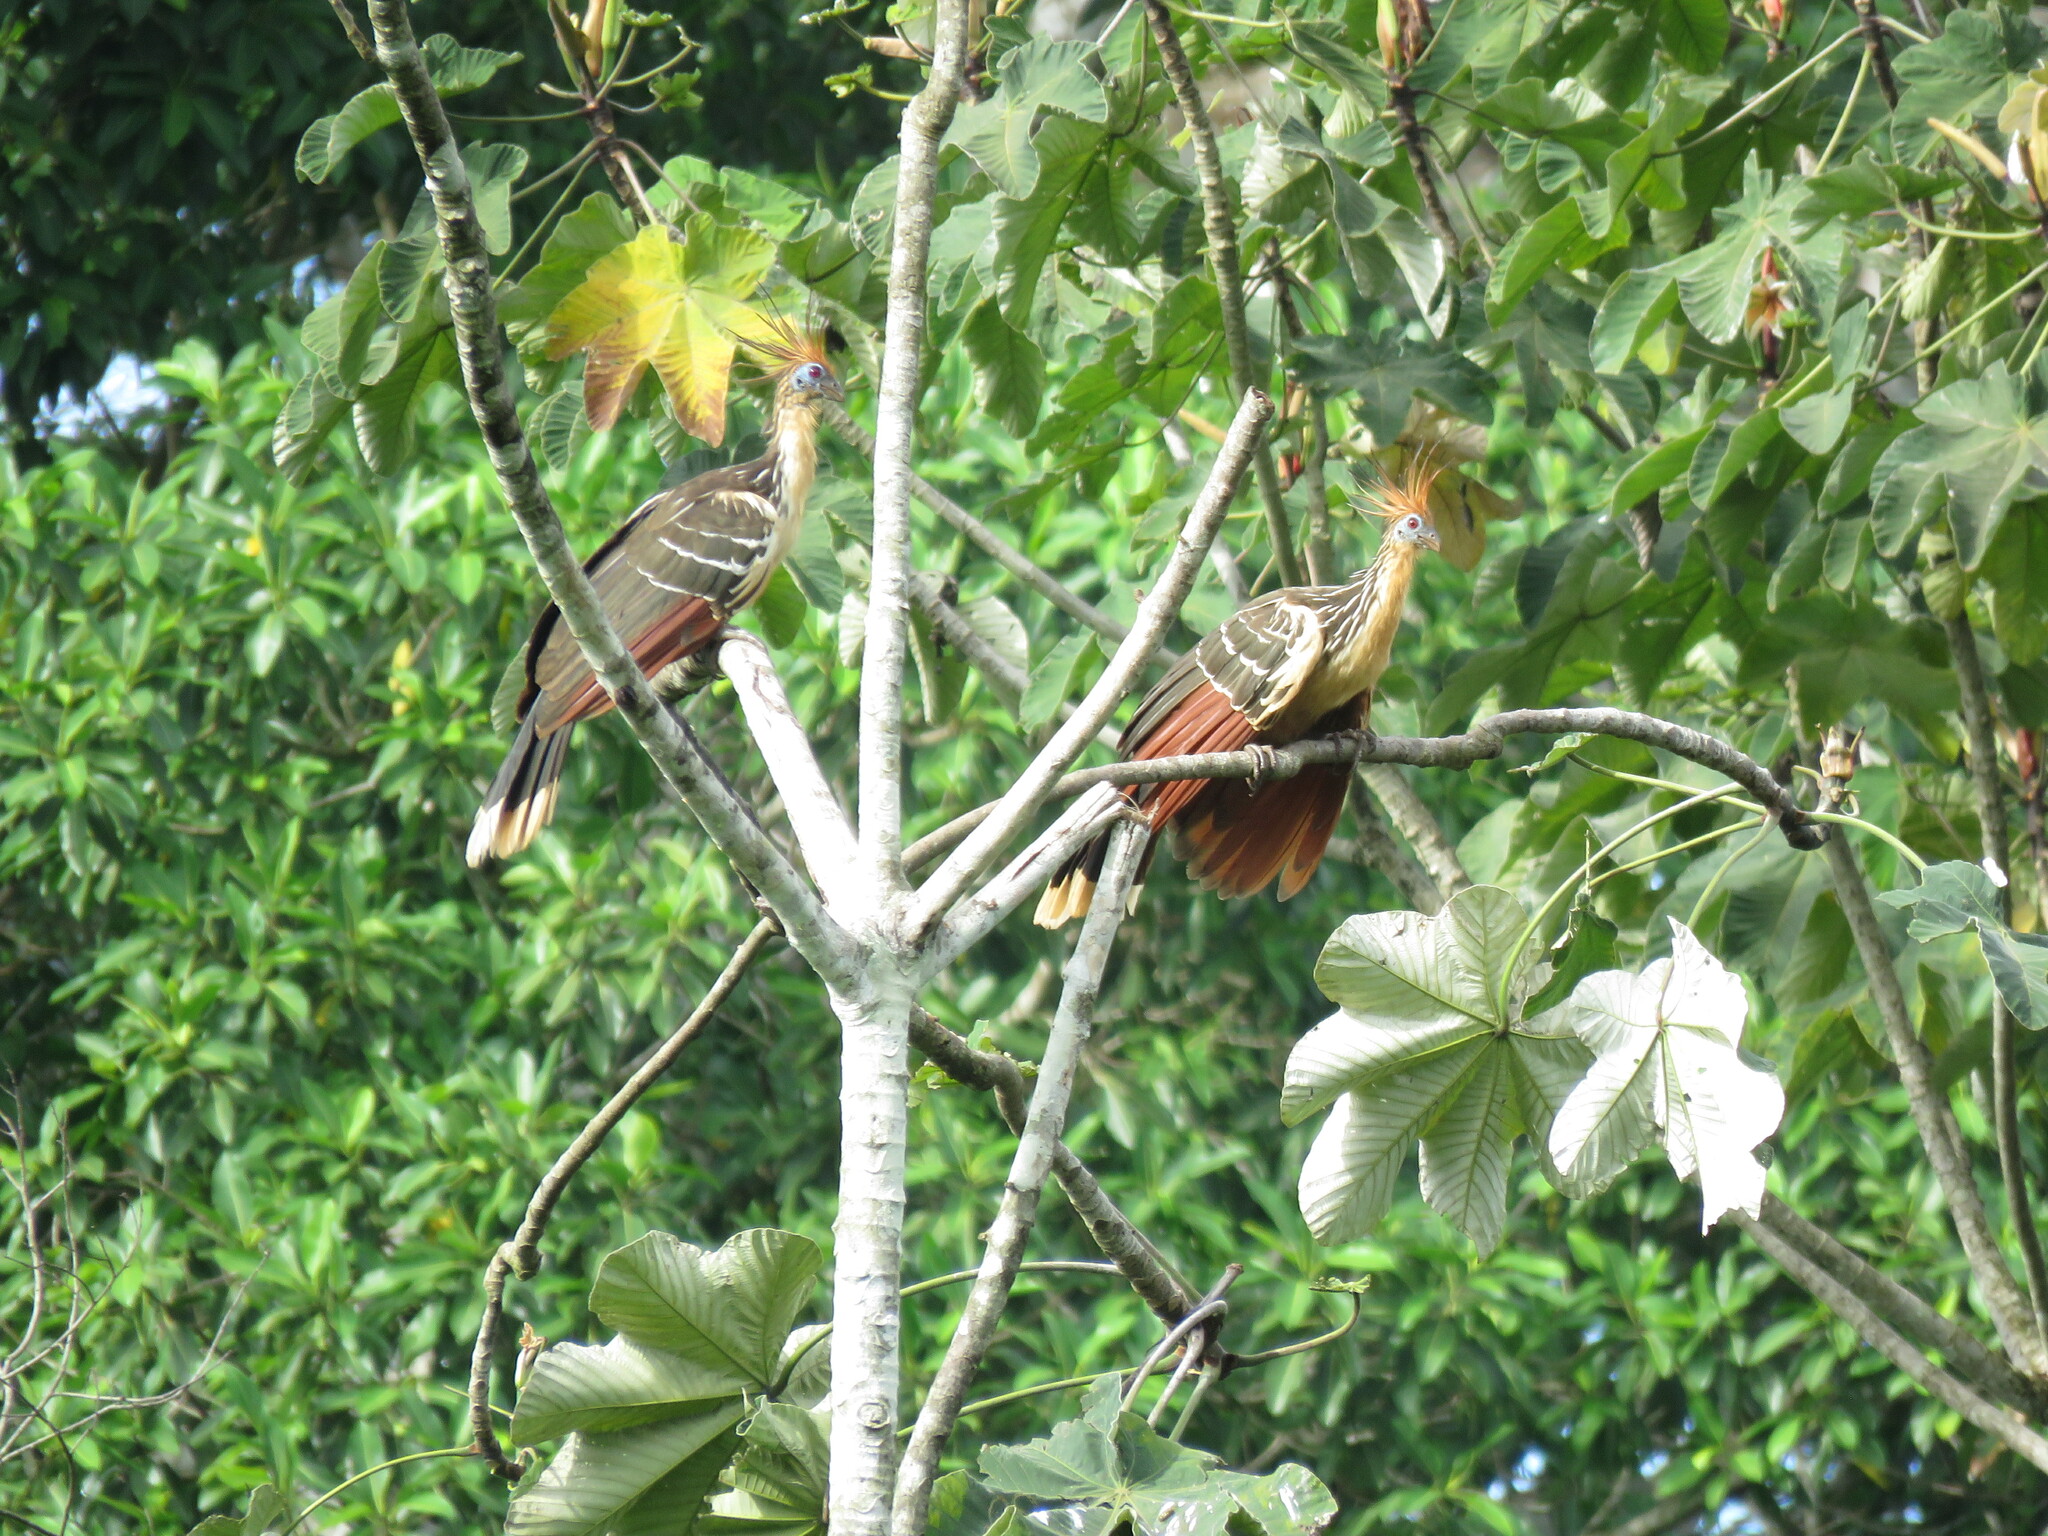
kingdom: Animalia
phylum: Chordata
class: Aves
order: Opisthocomiformes
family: Opisthocomidae
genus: Opisthocomus
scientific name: Opisthocomus hoazin
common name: Hoatzin
